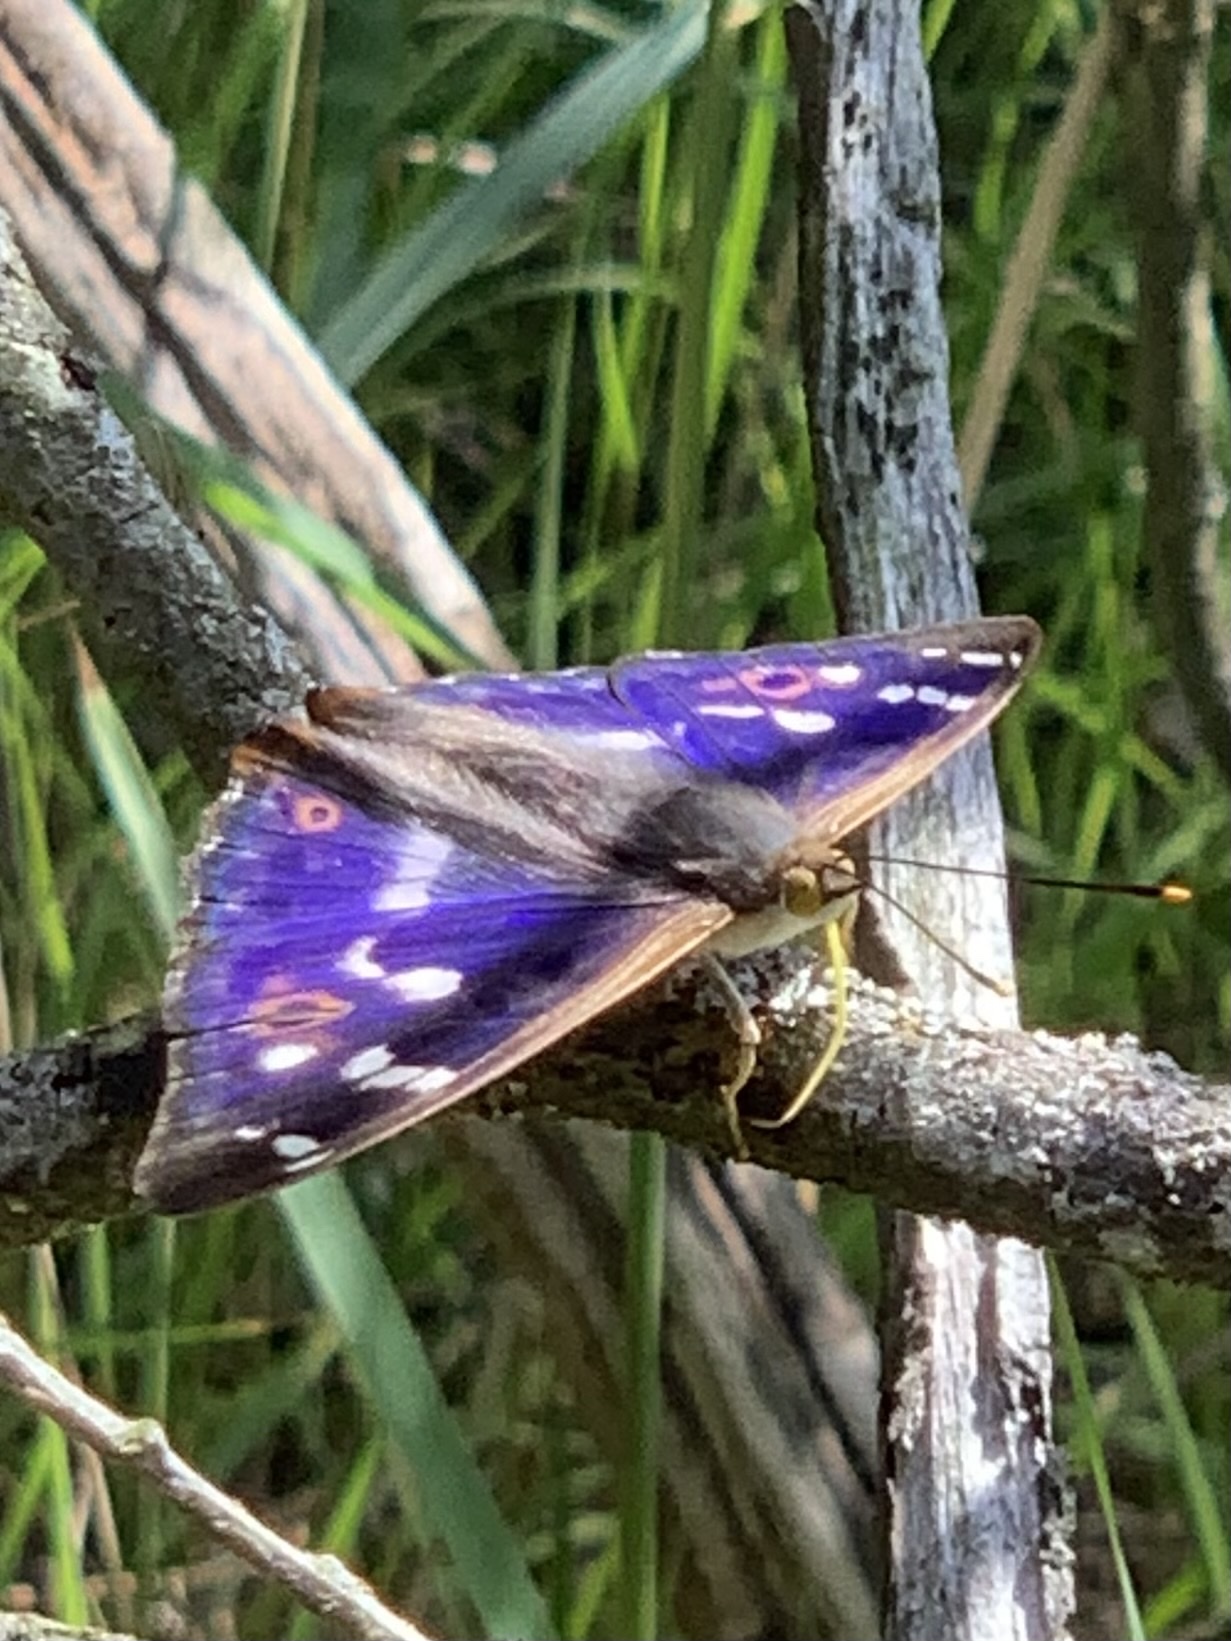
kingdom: Animalia
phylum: Arthropoda
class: Insecta
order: Lepidoptera
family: Nymphalidae
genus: Apatura
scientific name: Apatura ilia
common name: Lesser purple emperor
